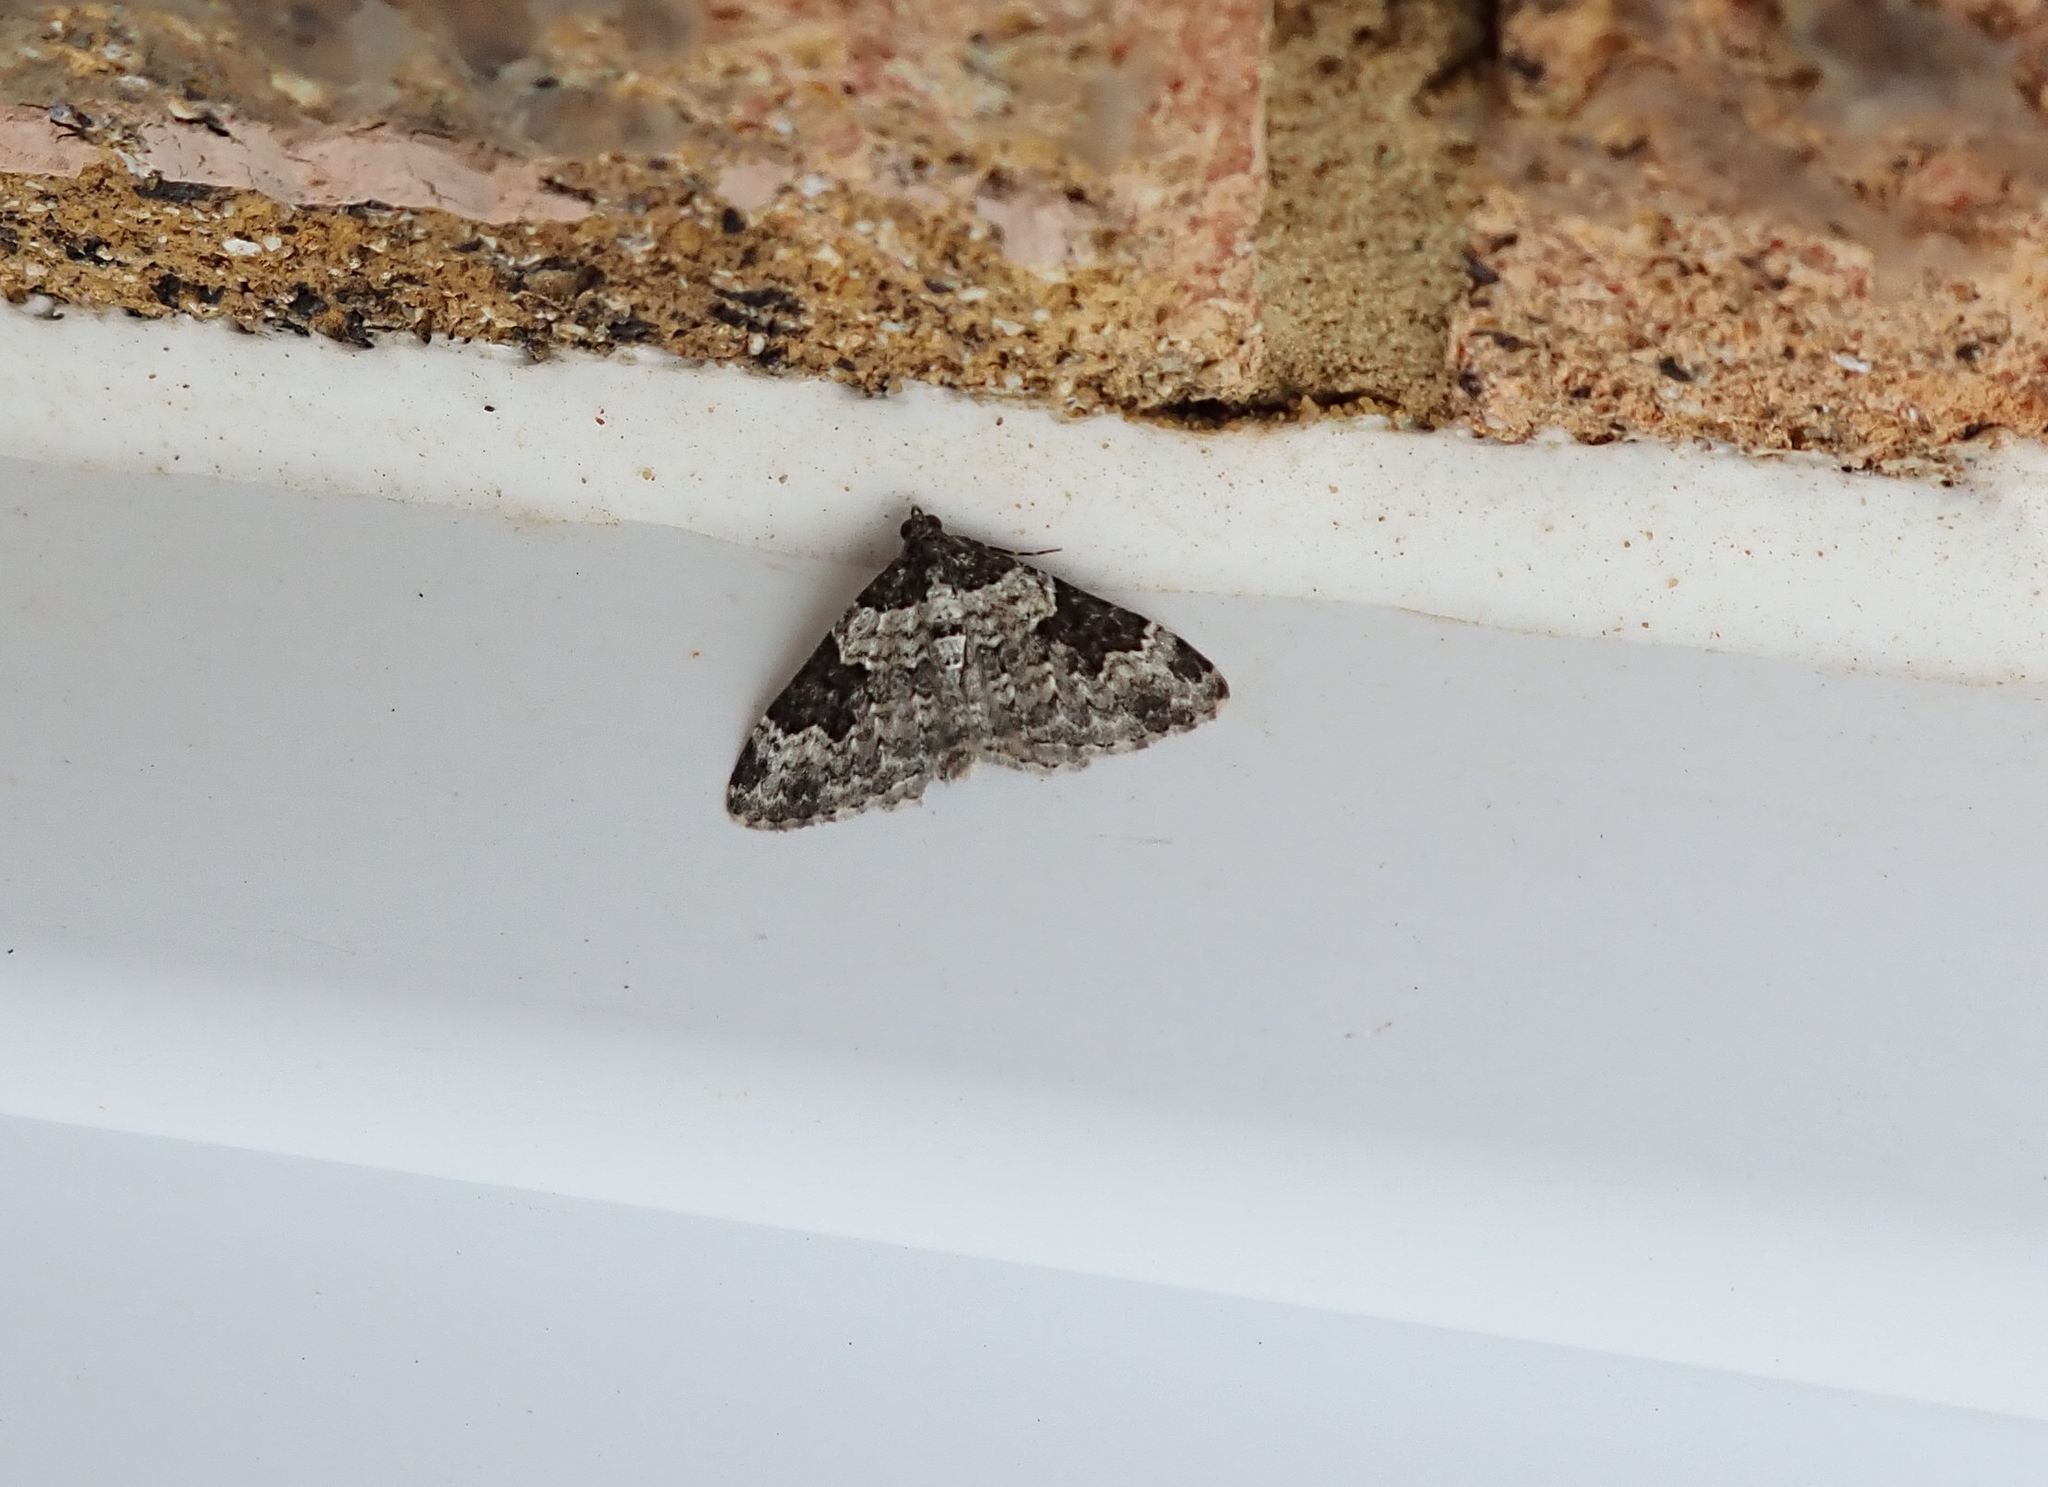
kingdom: Animalia
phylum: Arthropoda
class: Insecta
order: Lepidoptera
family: Geometridae
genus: Xanthorhoe
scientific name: Xanthorhoe fluctuata
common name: Garden carpet
